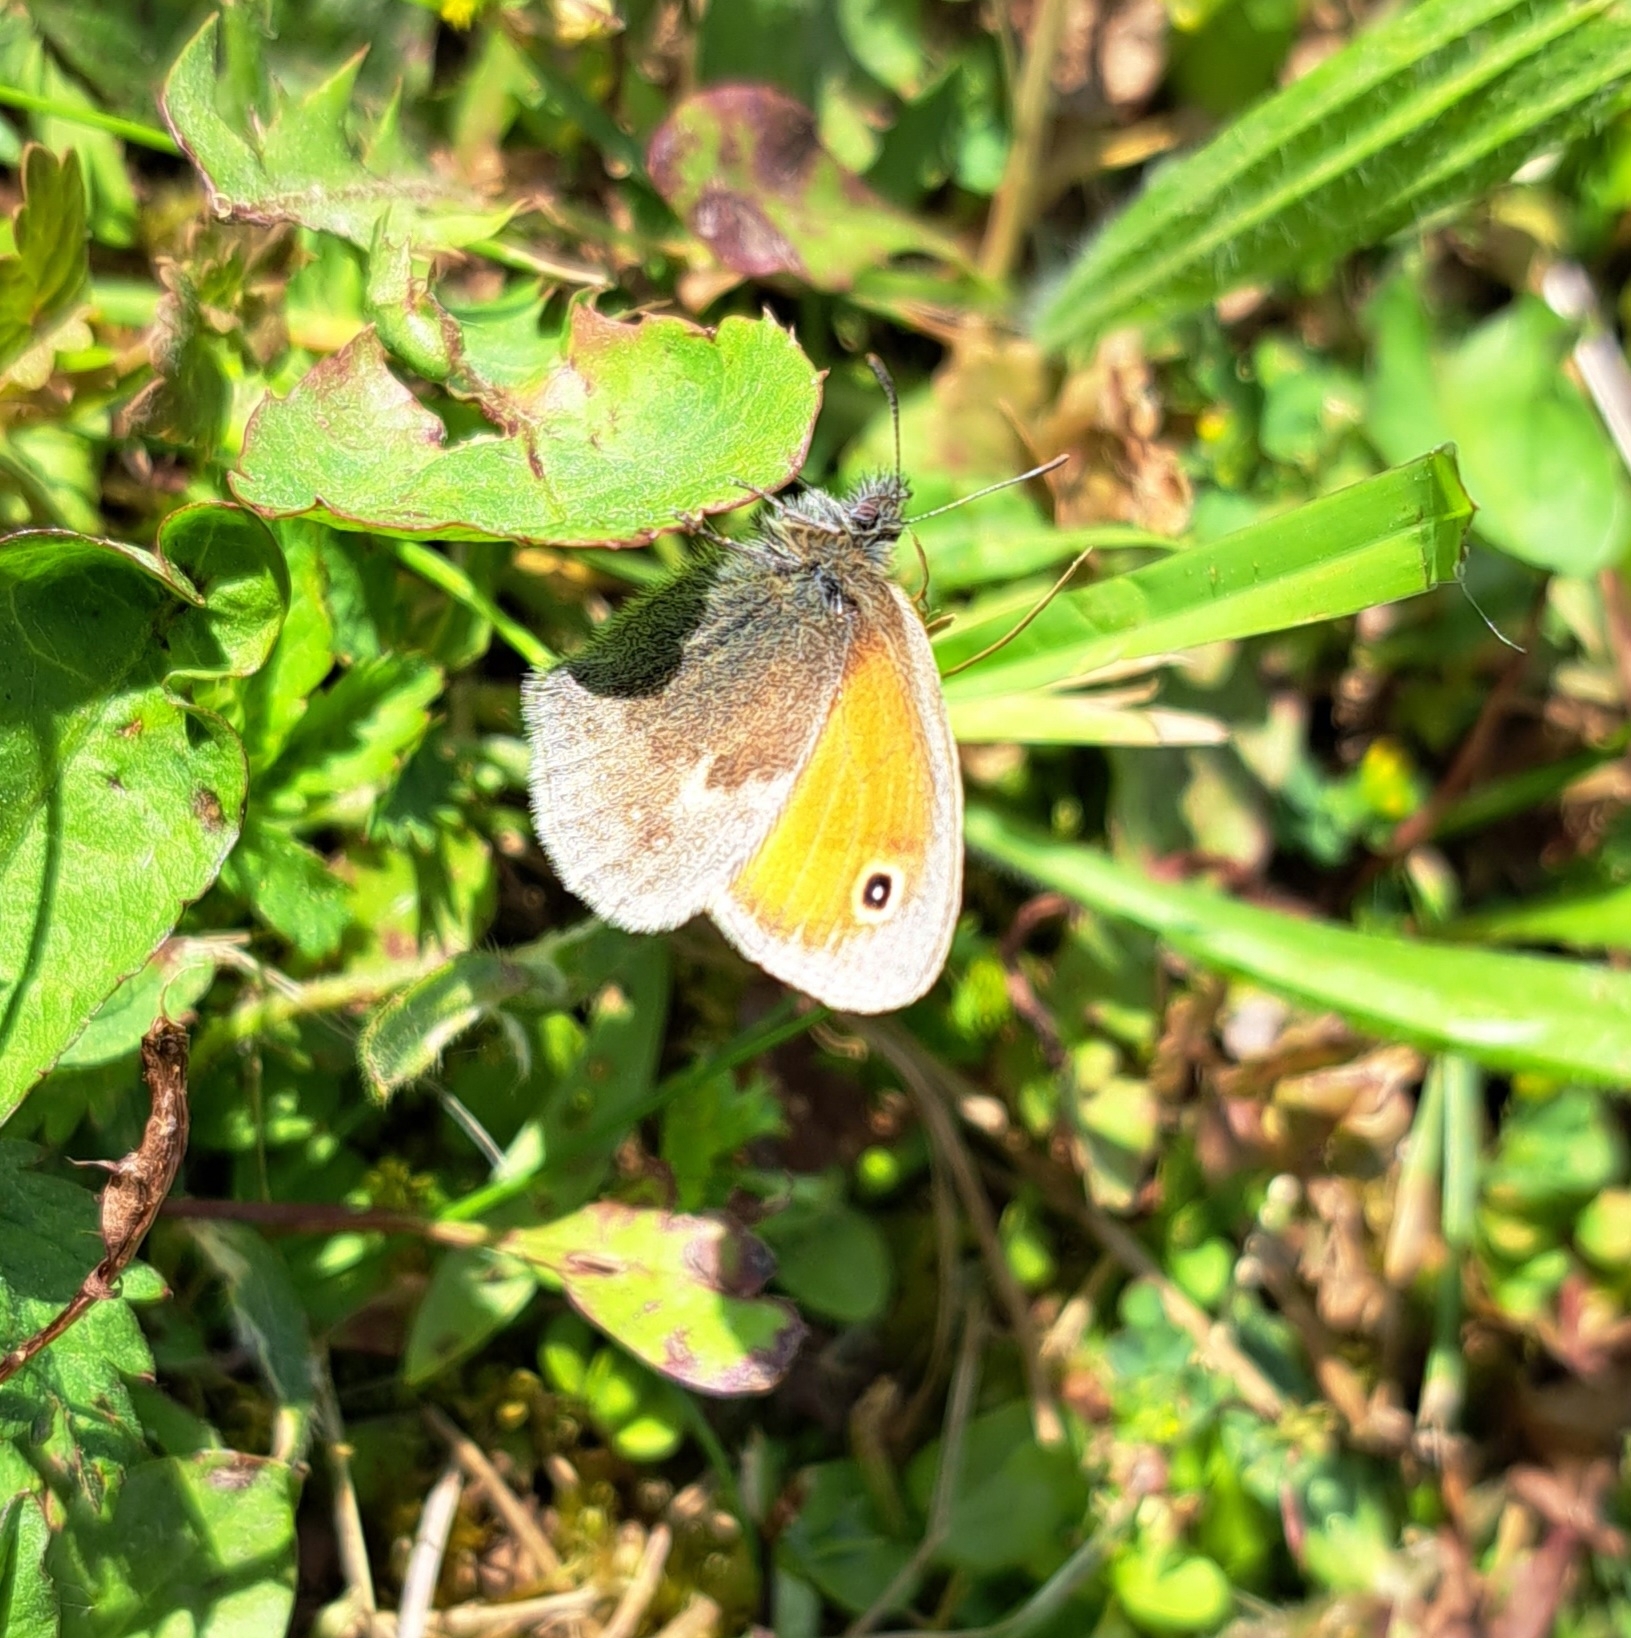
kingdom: Animalia
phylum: Arthropoda
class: Insecta
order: Lepidoptera
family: Nymphalidae
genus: Coenonympha
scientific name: Coenonympha pamphilus
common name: Small heath
